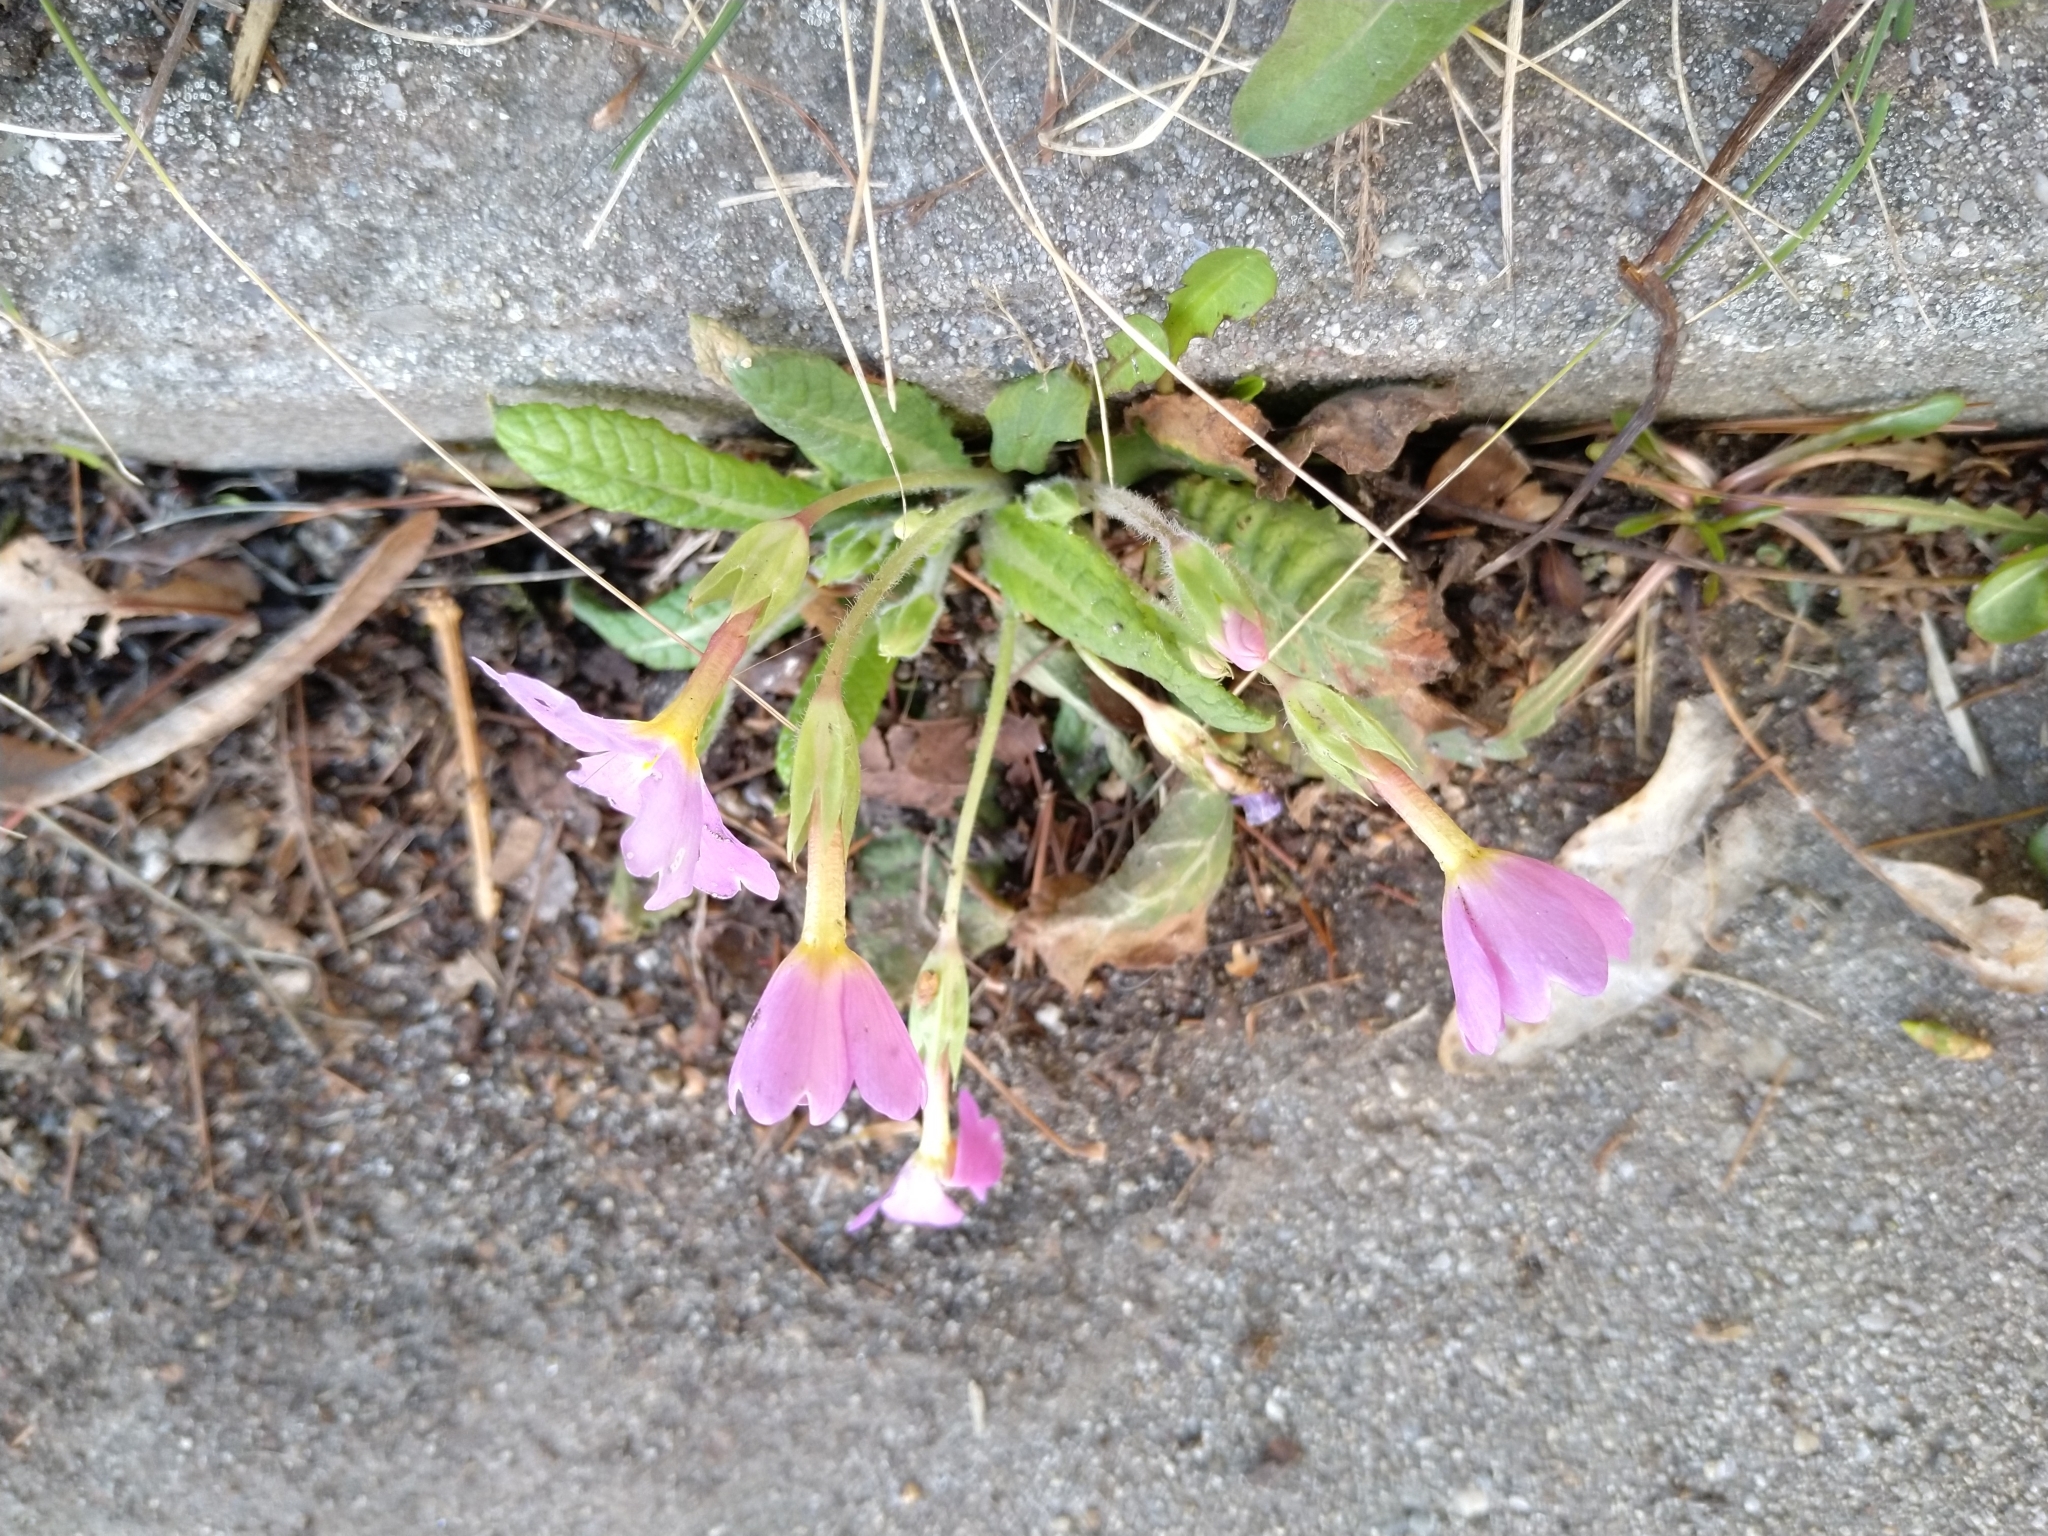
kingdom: Plantae
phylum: Tracheophyta
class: Magnoliopsida
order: Ericales
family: Primulaceae
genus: Primula
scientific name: Primula vulgaris
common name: Primrose
